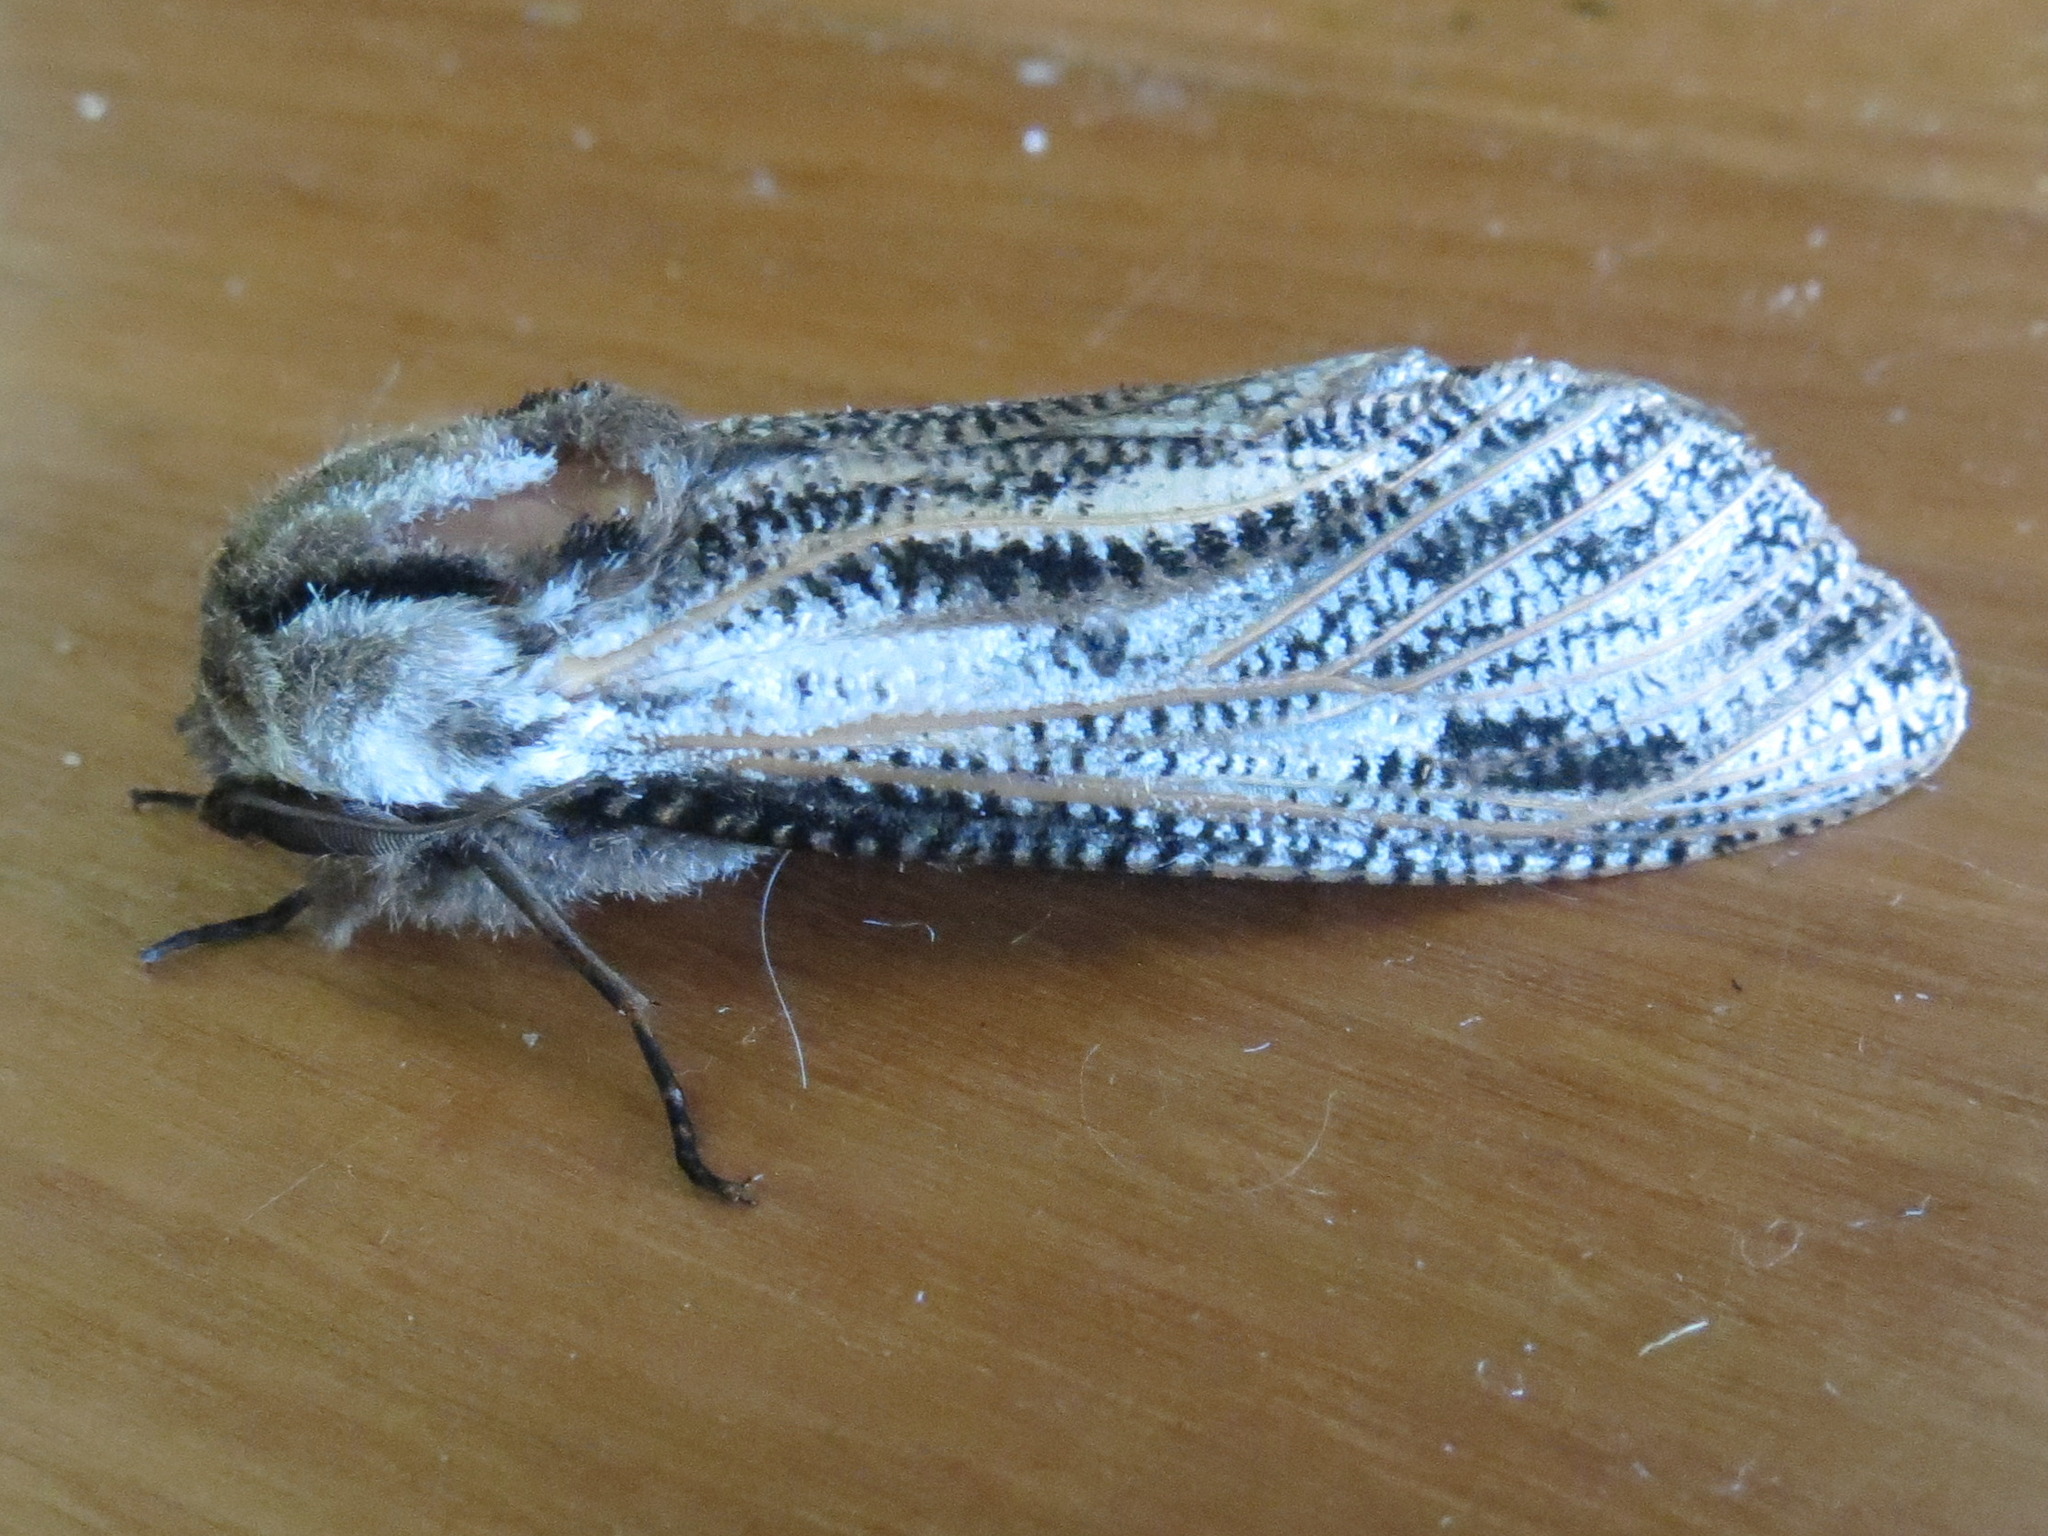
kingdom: Animalia
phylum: Arthropoda
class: Insecta
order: Lepidoptera
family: Cossidae
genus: Endoxyla
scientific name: Endoxyla liturata
